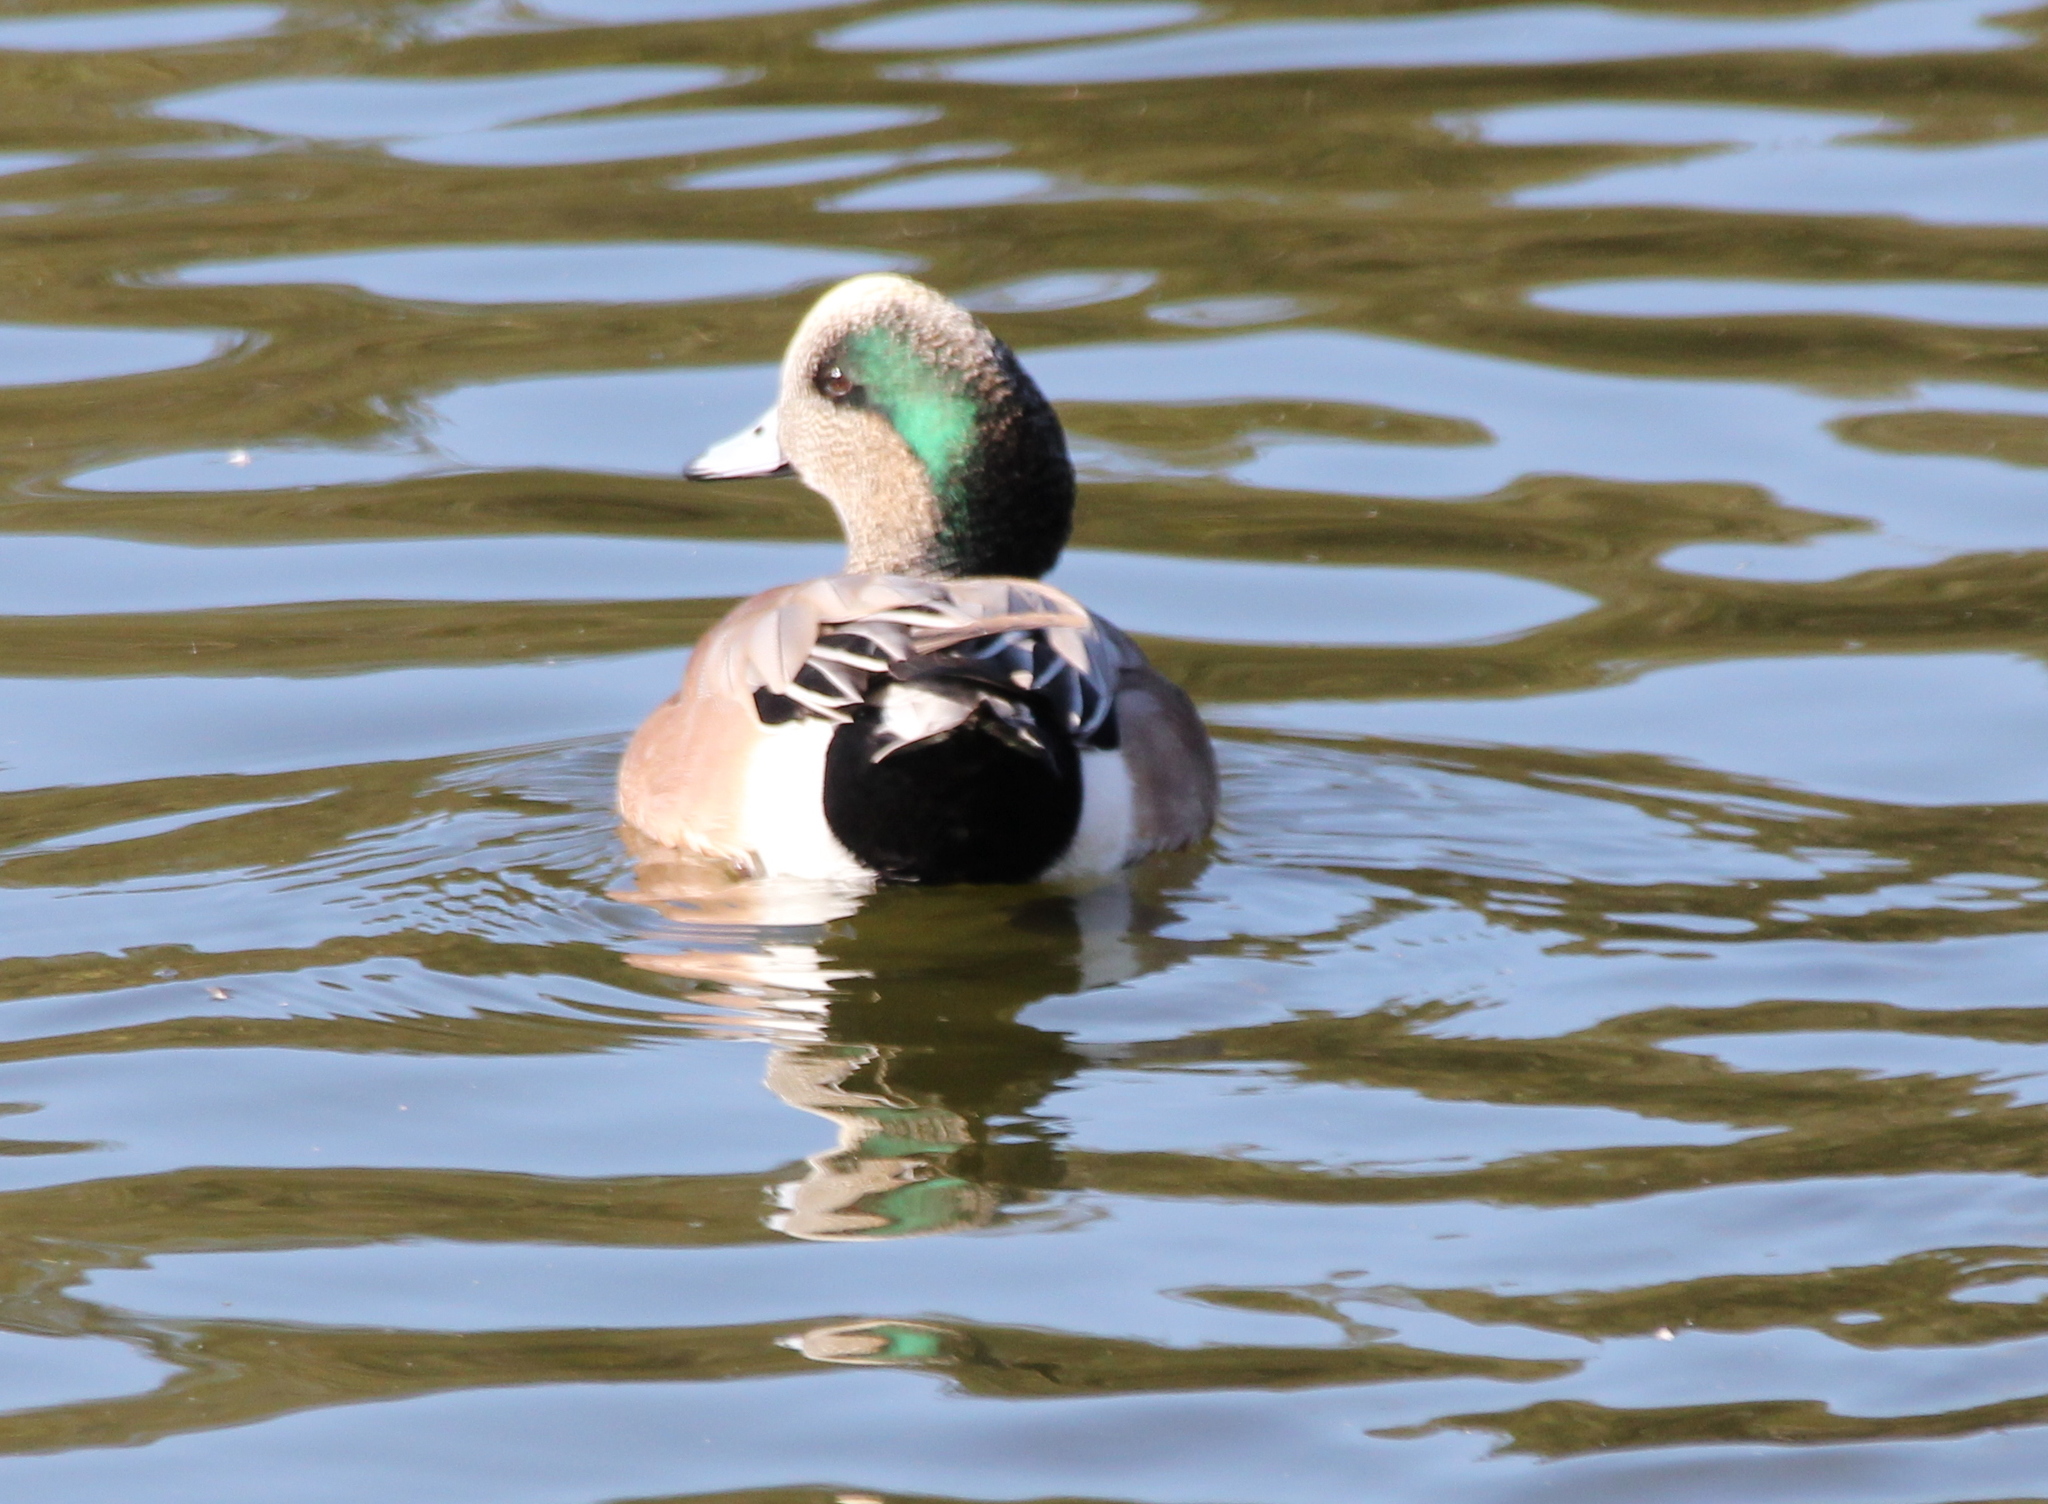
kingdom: Animalia
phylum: Chordata
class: Aves
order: Anseriformes
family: Anatidae
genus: Mareca
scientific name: Mareca americana
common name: American wigeon
